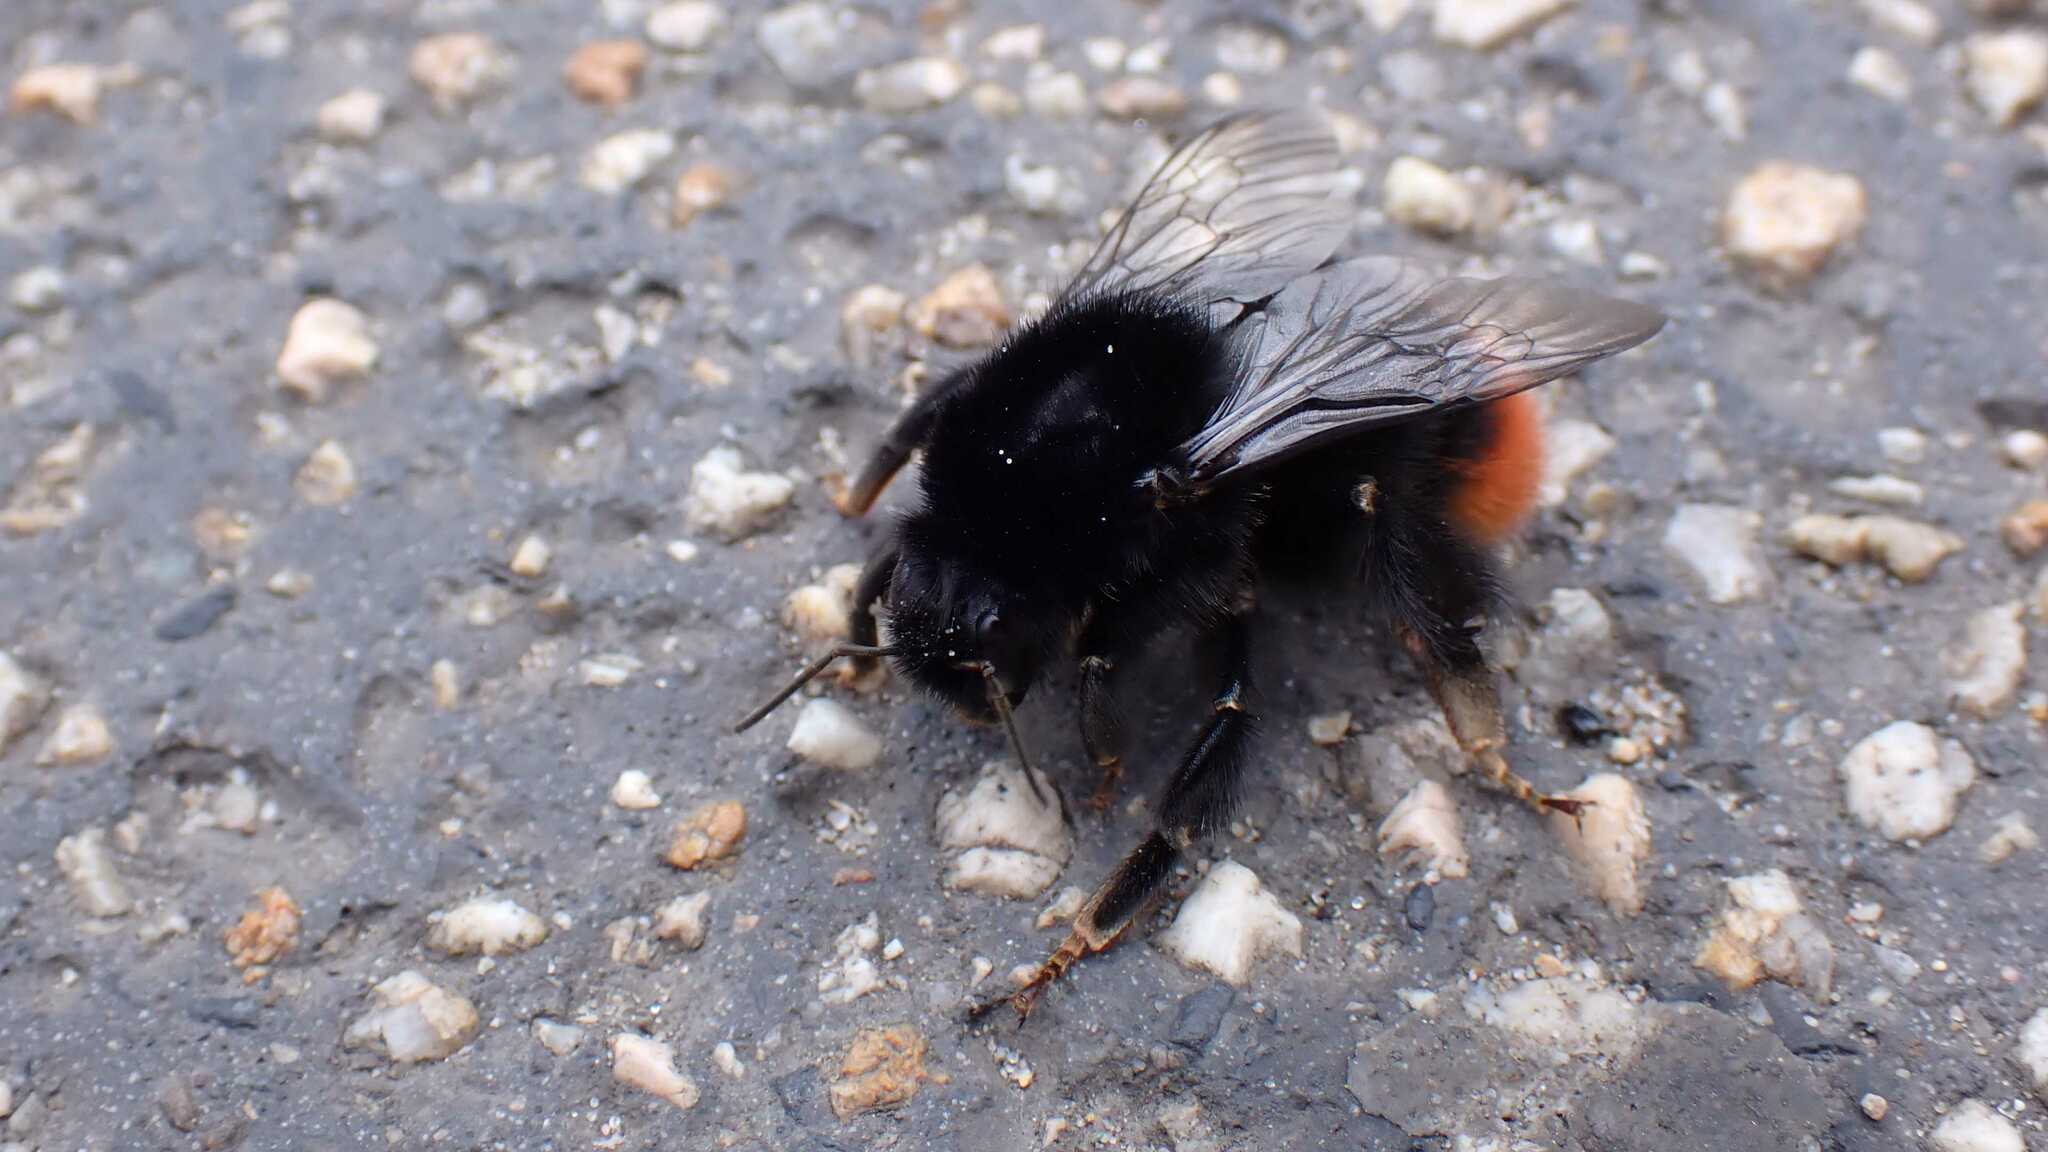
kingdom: Animalia
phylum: Arthropoda
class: Insecta
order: Hymenoptera
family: Apidae
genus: Bombus
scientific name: Bombus lapidarius
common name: Large red-tailed humble-bee
